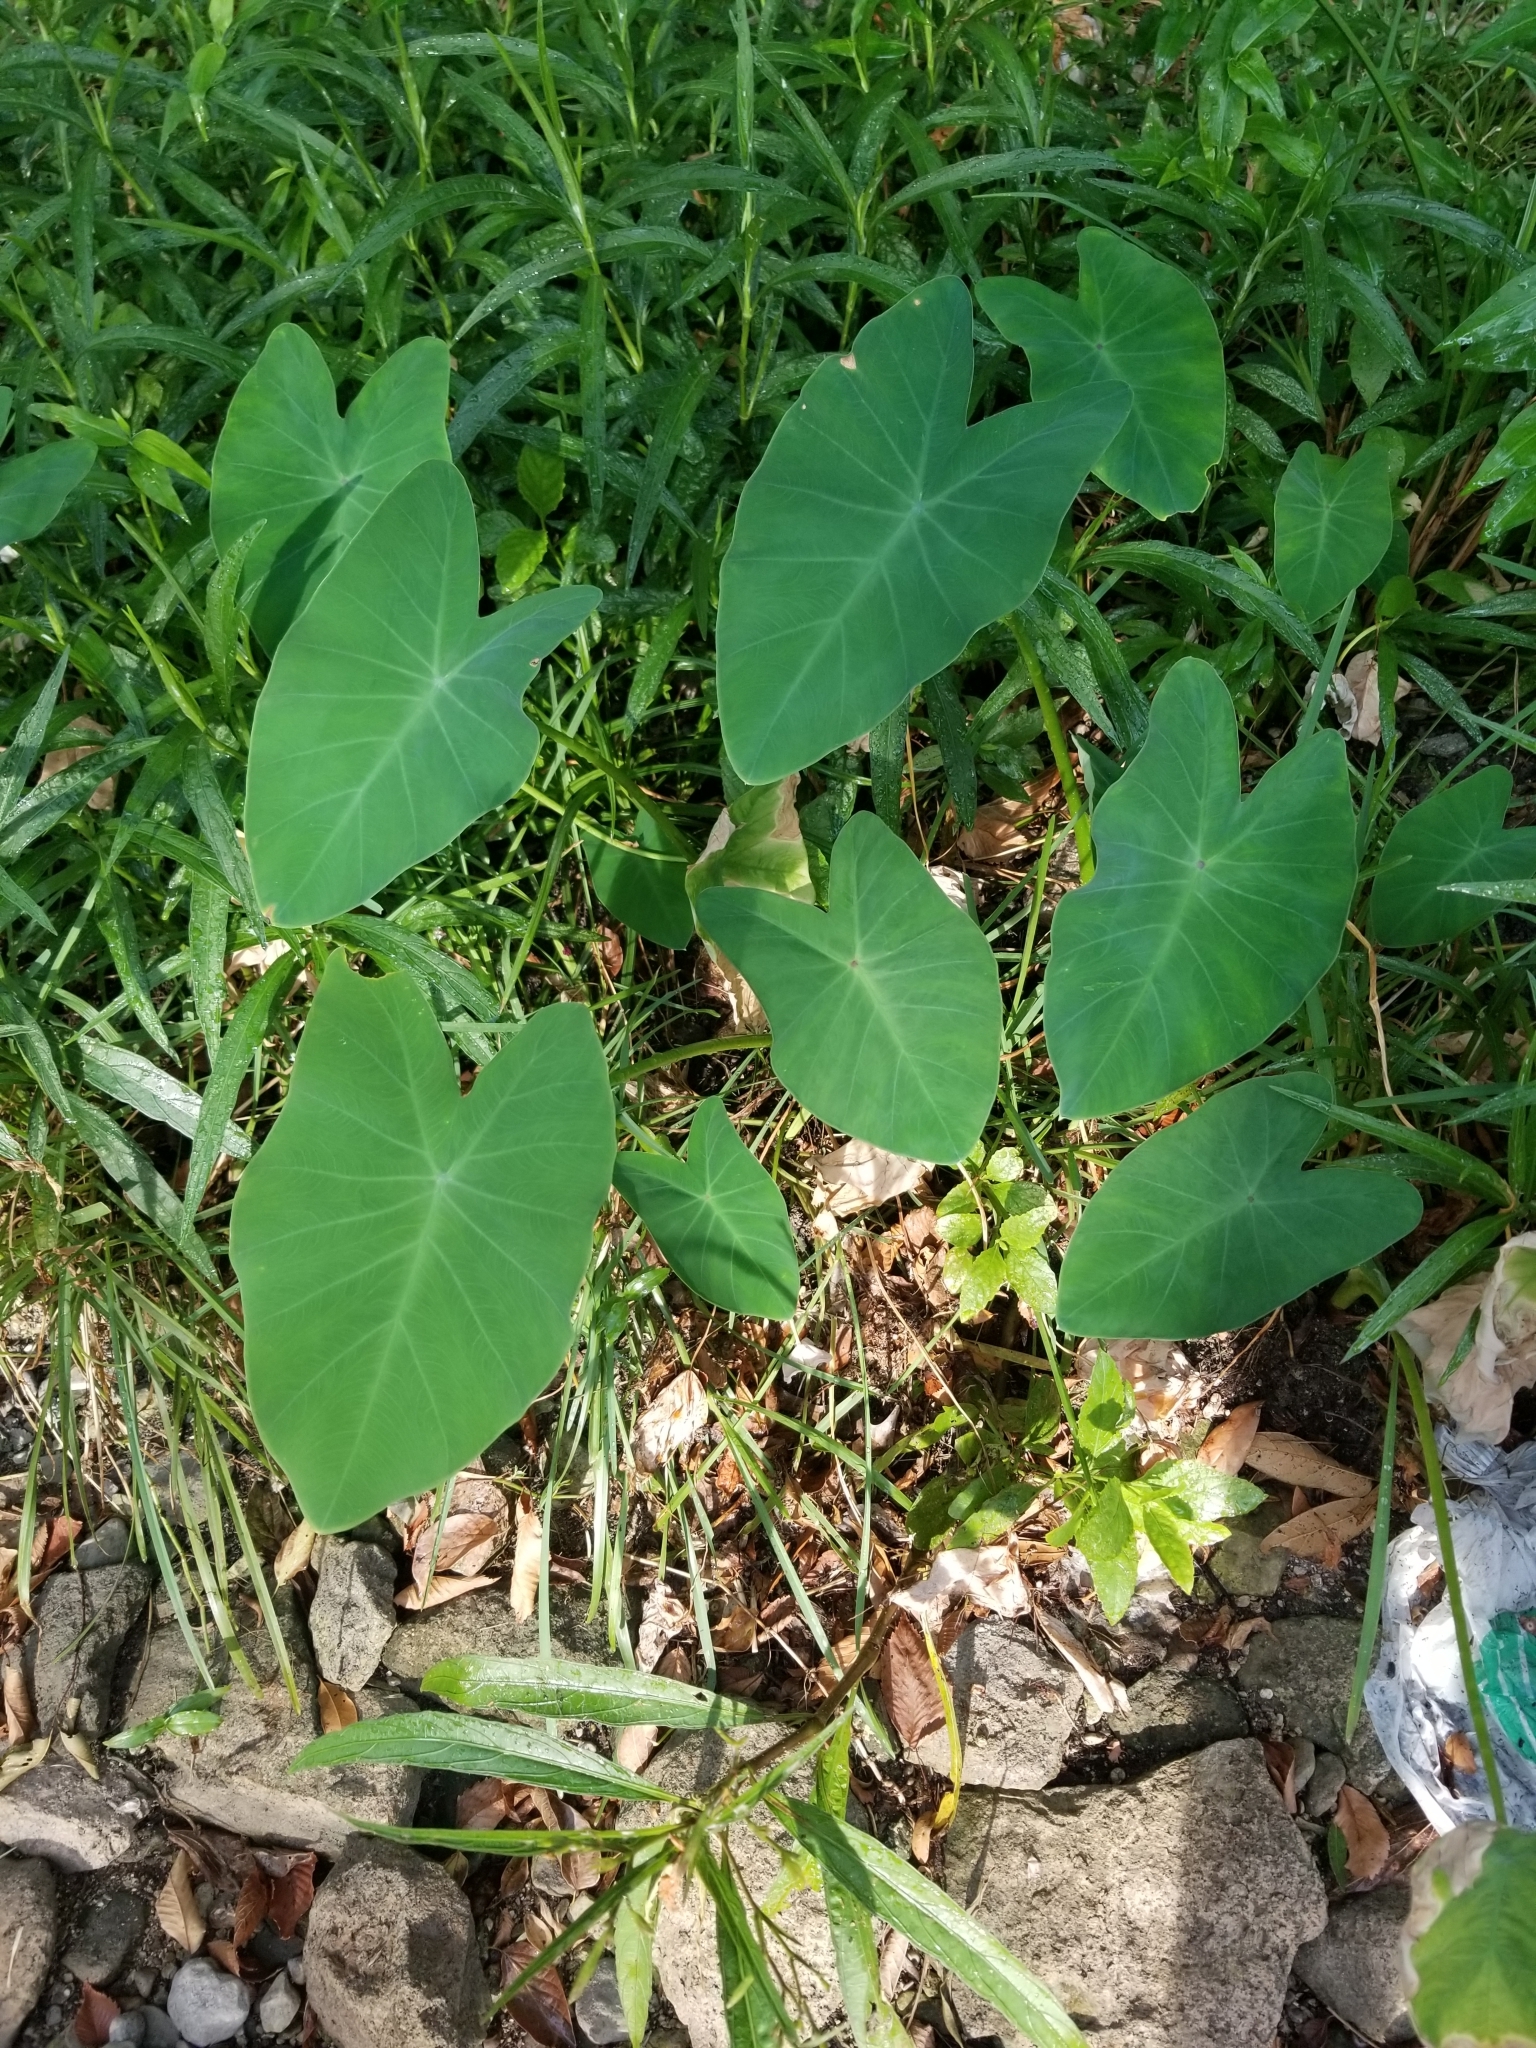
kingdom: Plantae
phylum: Tracheophyta
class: Liliopsida
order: Alismatales
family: Araceae
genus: Colocasia
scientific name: Colocasia esculenta
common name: Taro
